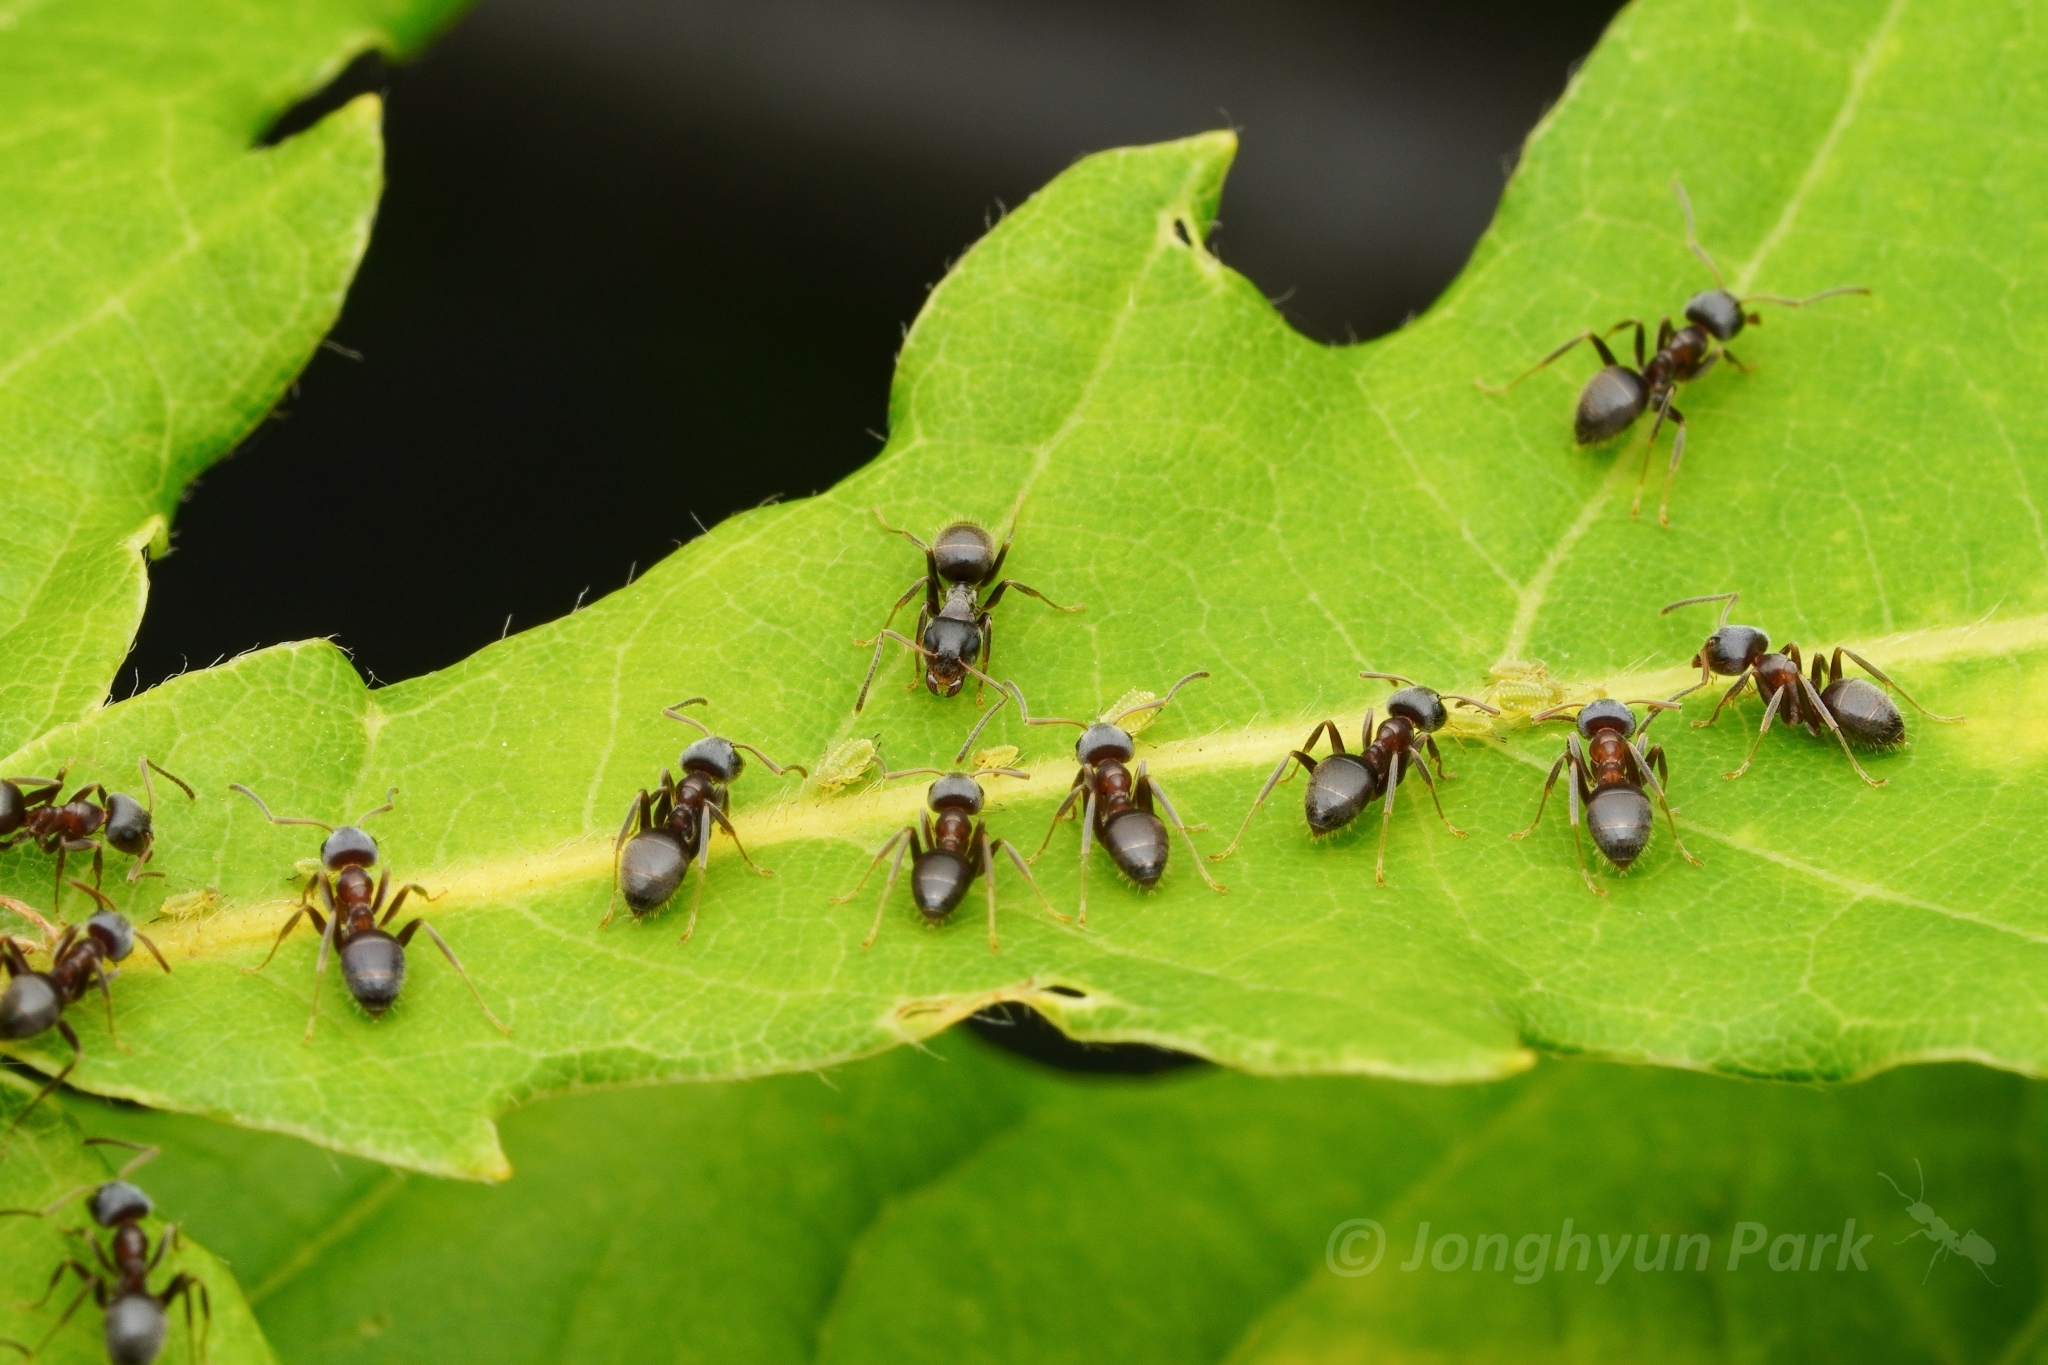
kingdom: Animalia
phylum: Arthropoda
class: Insecta
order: Hymenoptera
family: Formicidae
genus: Lasius
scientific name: Lasius japonicus
